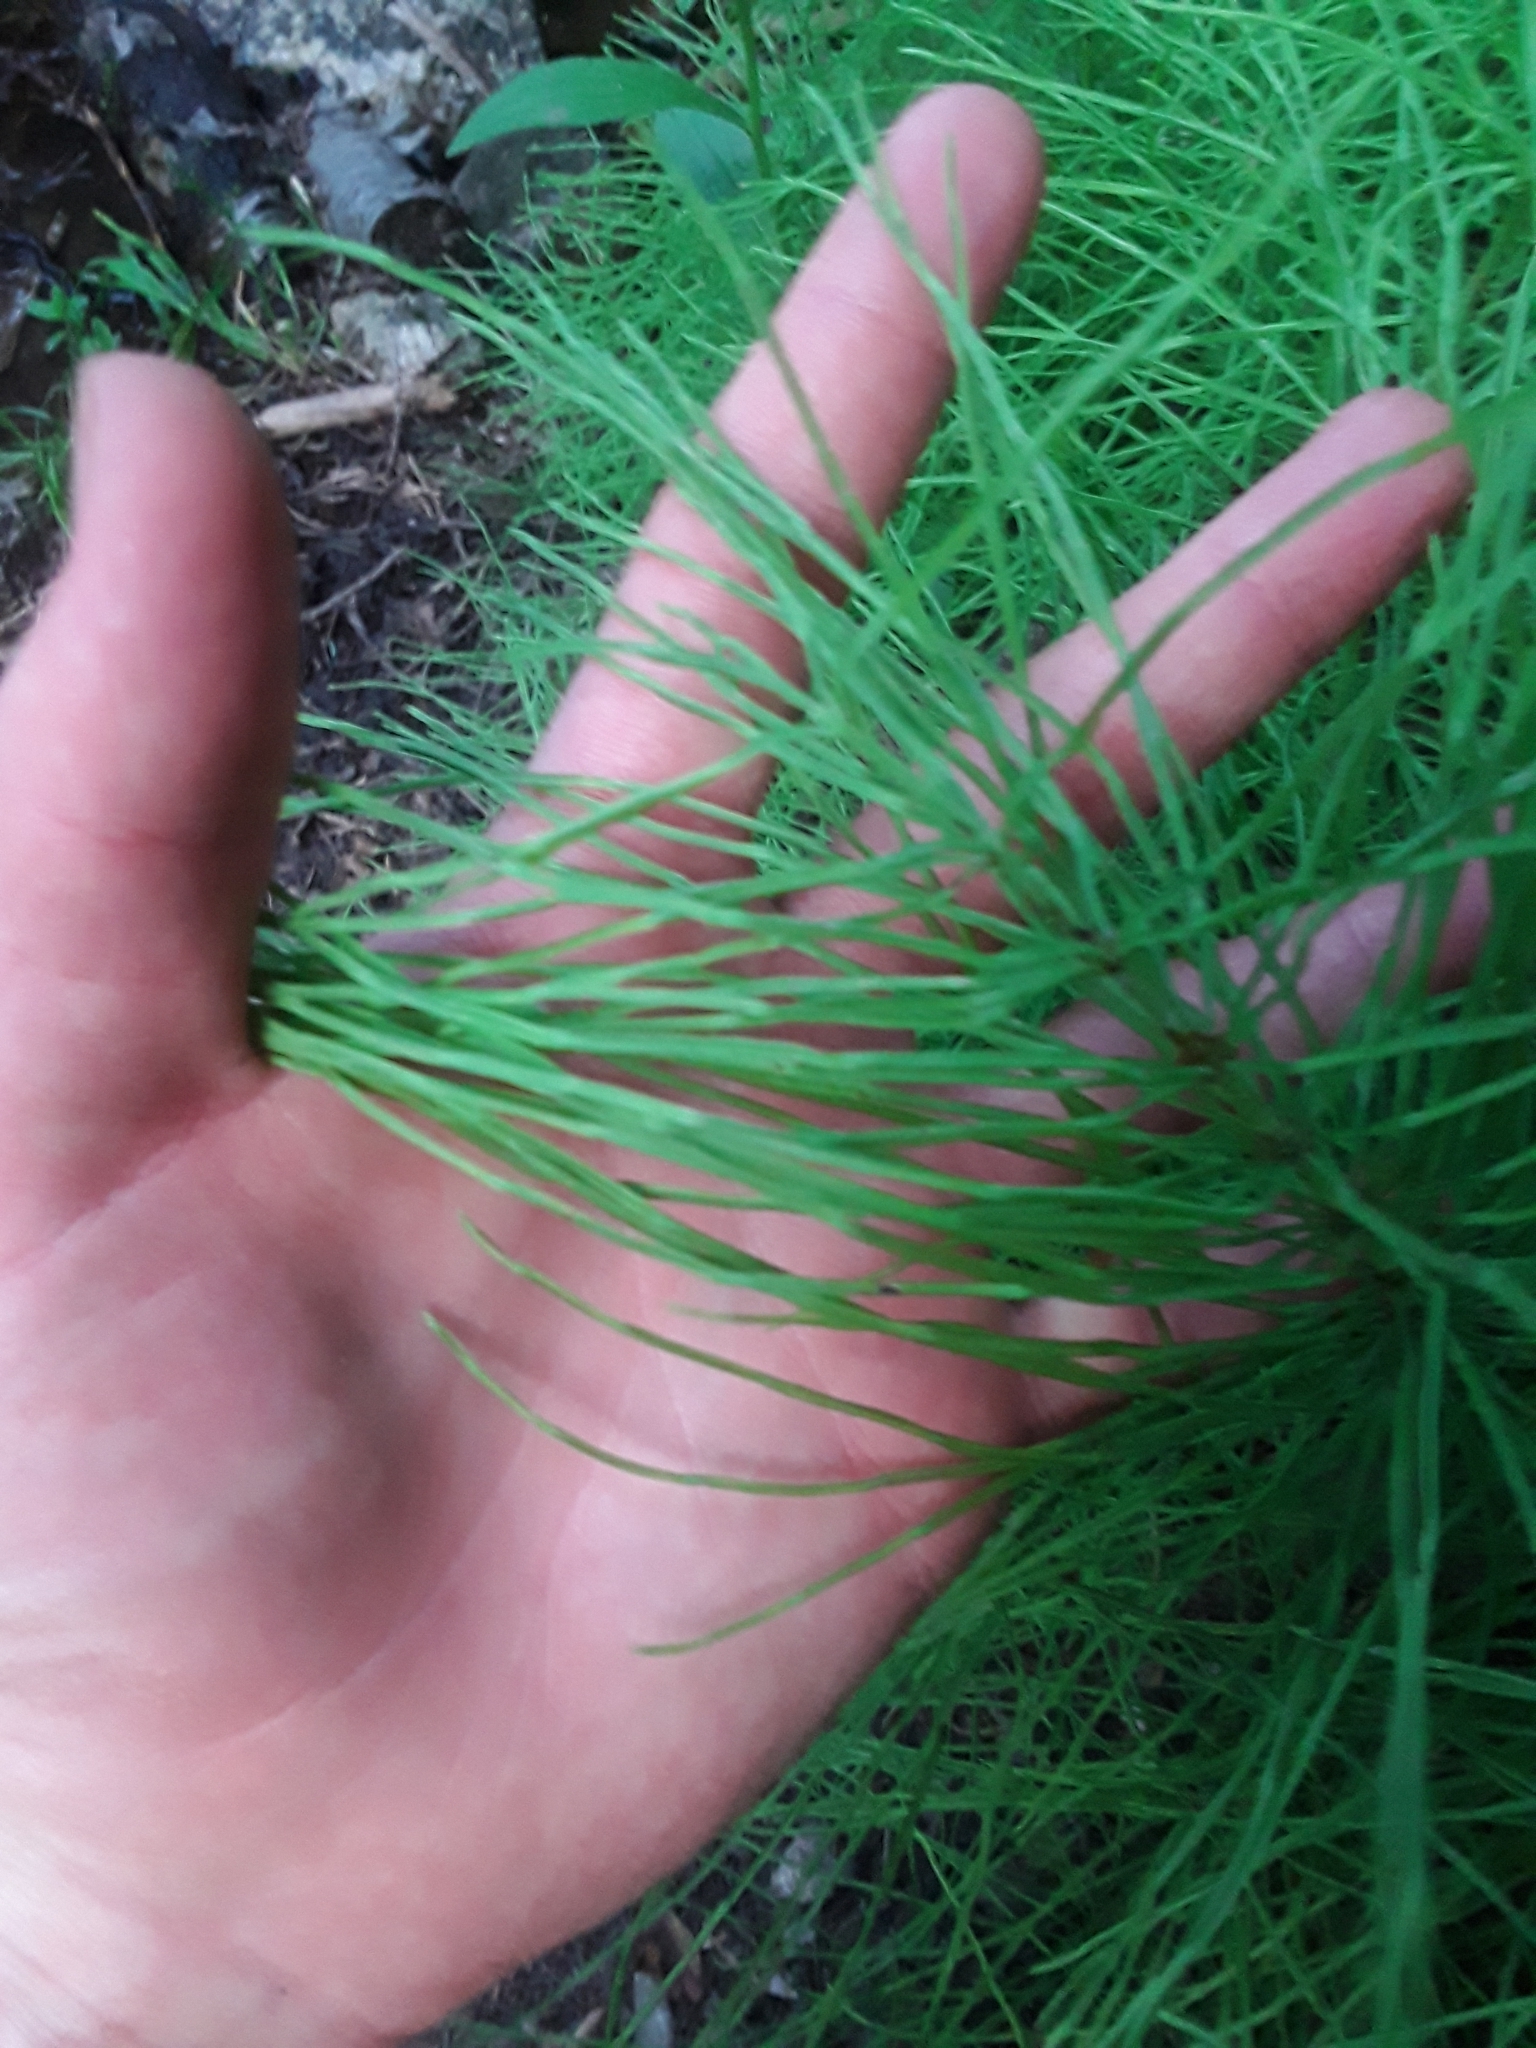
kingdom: Plantae
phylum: Tracheophyta
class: Polypodiopsida
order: Equisetales
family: Equisetaceae
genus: Equisetum
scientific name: Equisetum arvense
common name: Field horsetail
